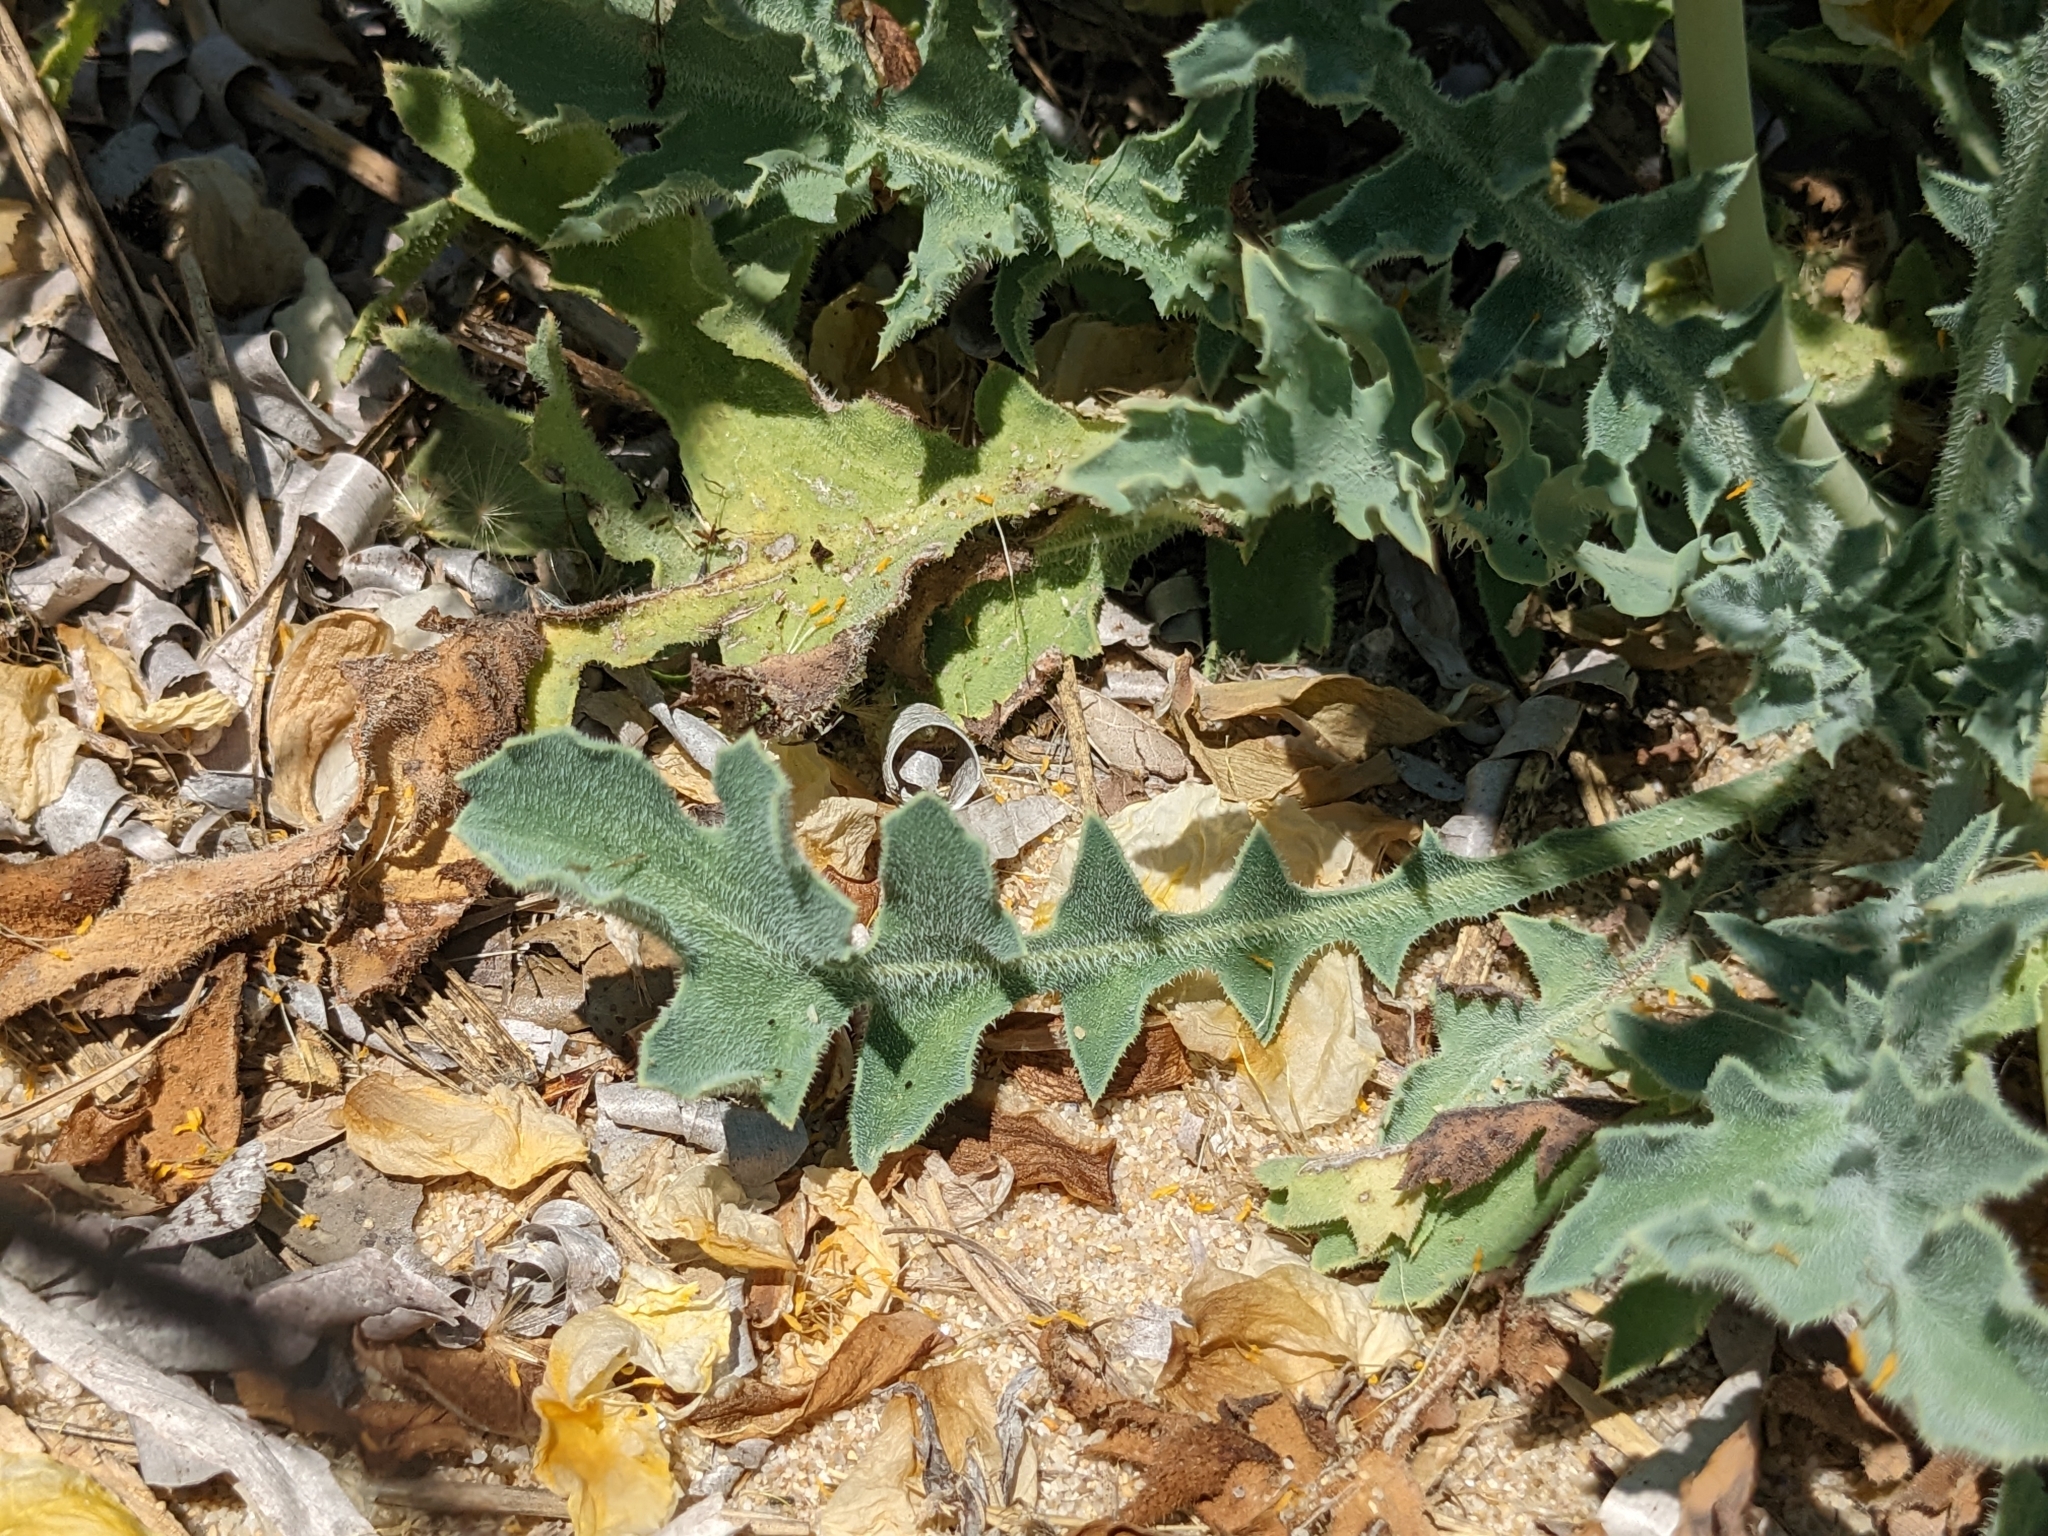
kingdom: Plantae
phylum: Tracheophyta
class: Magnoliopsida
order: Ranunculales
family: Papaveraceae
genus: Glaucium
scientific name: Glaucium flavum
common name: Yellow horned-poppy
